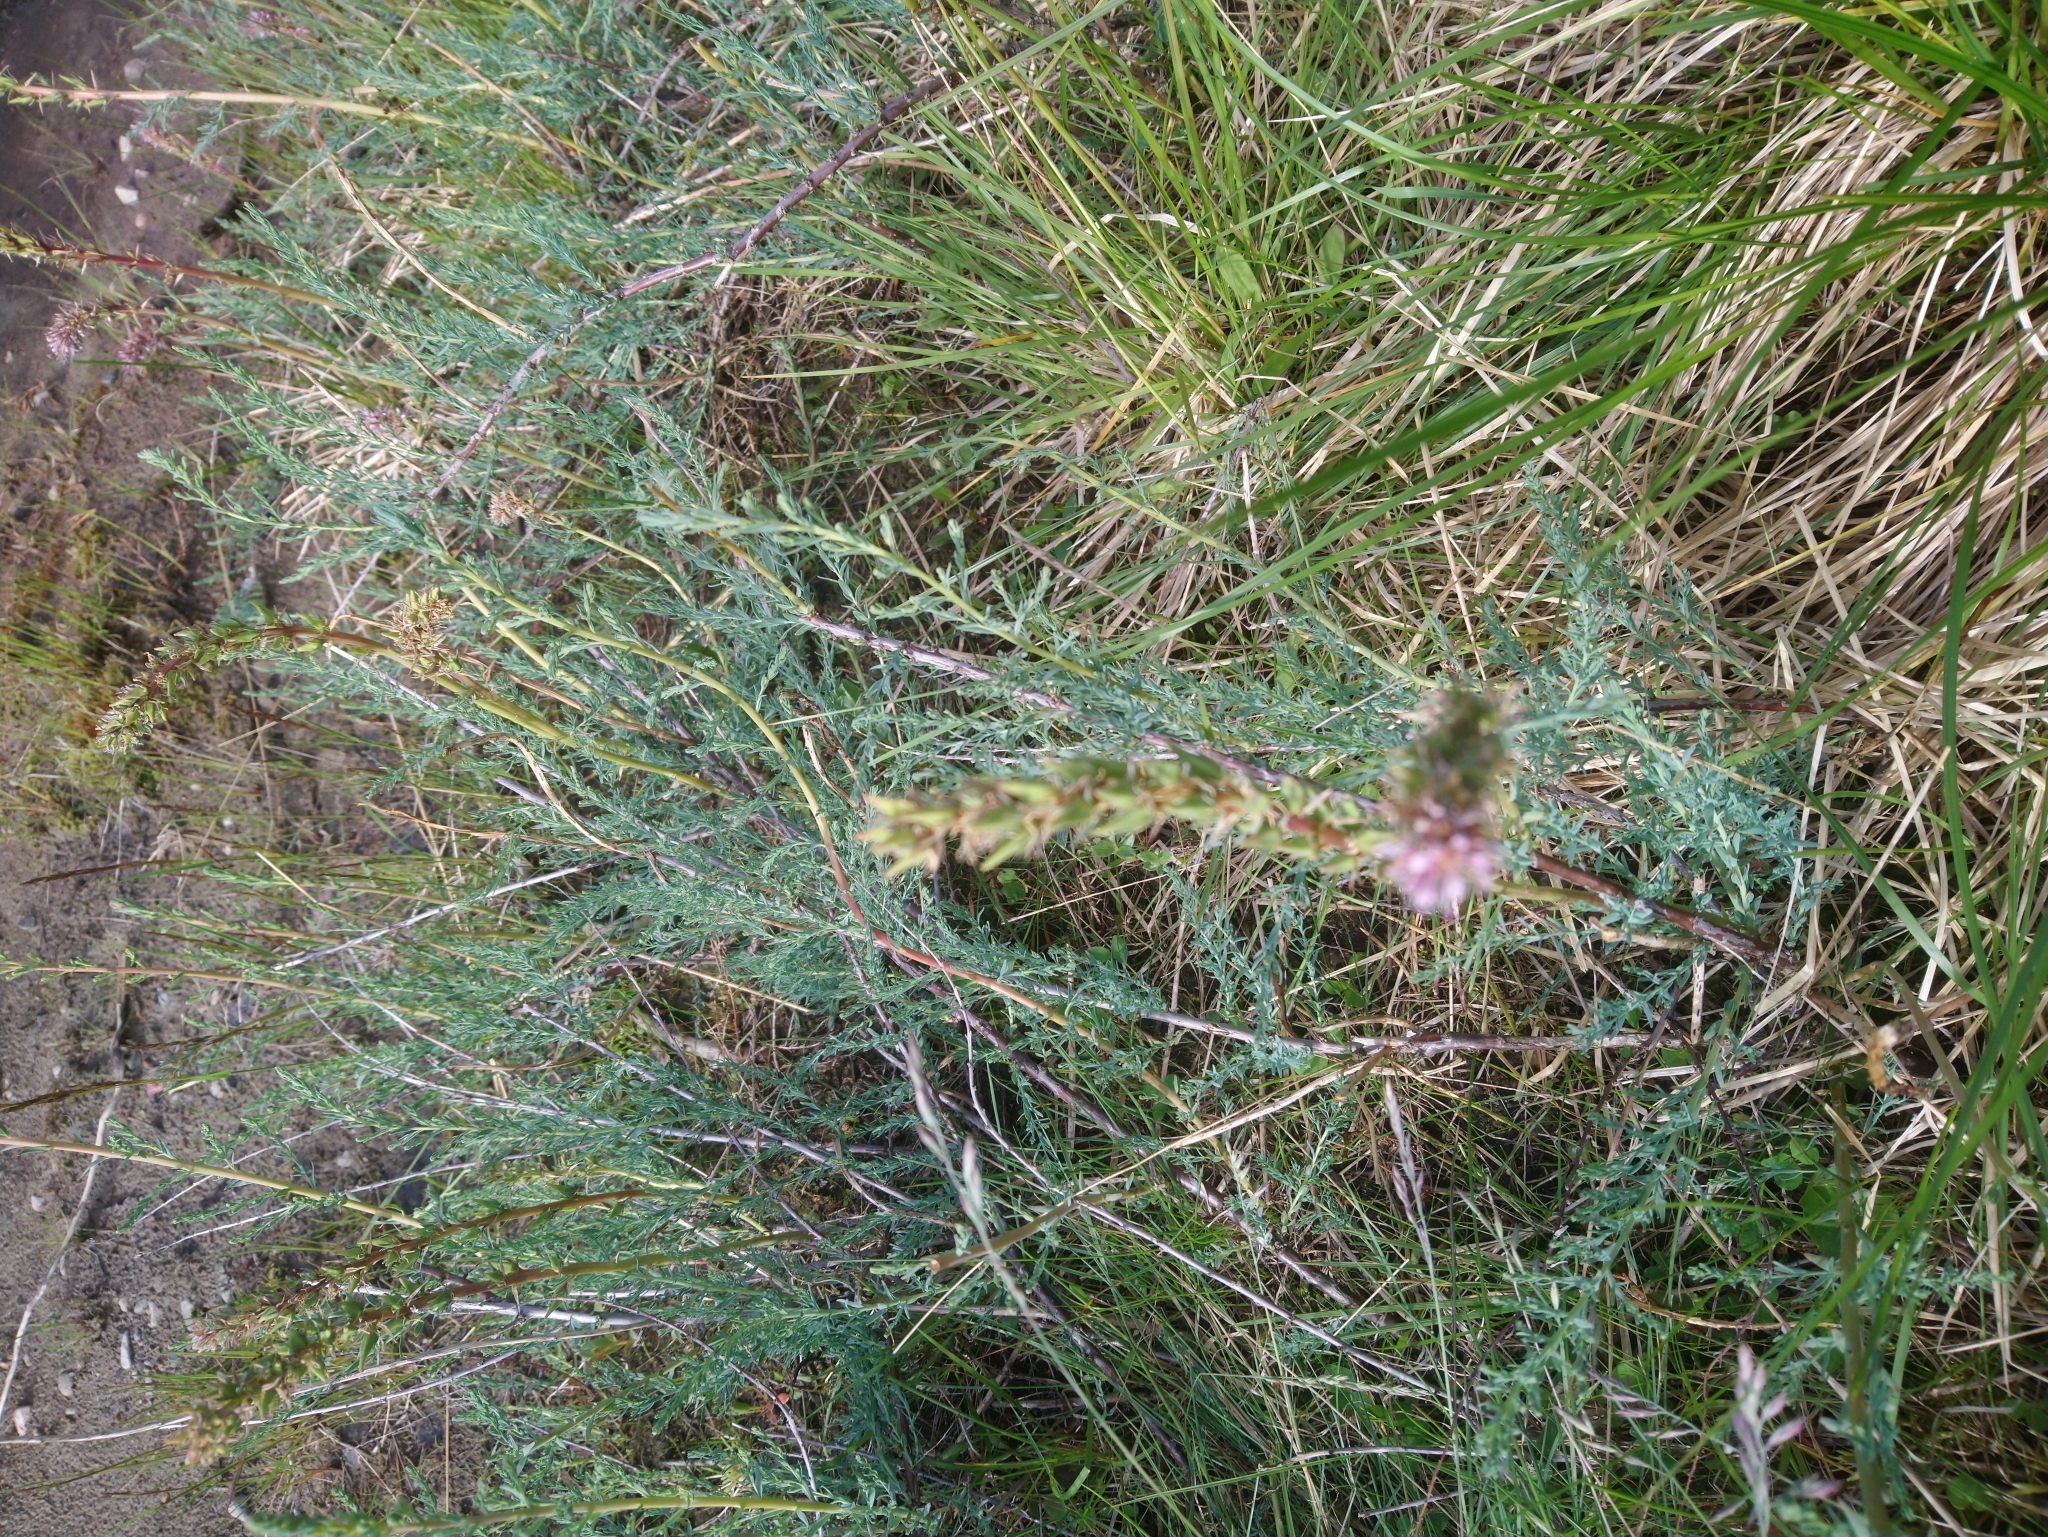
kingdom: Plantae
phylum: Tracheophyta
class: Magnoliopsida
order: Caryophyllales
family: Tamaricaceae
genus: Myricaria
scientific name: Myricaria germanica
